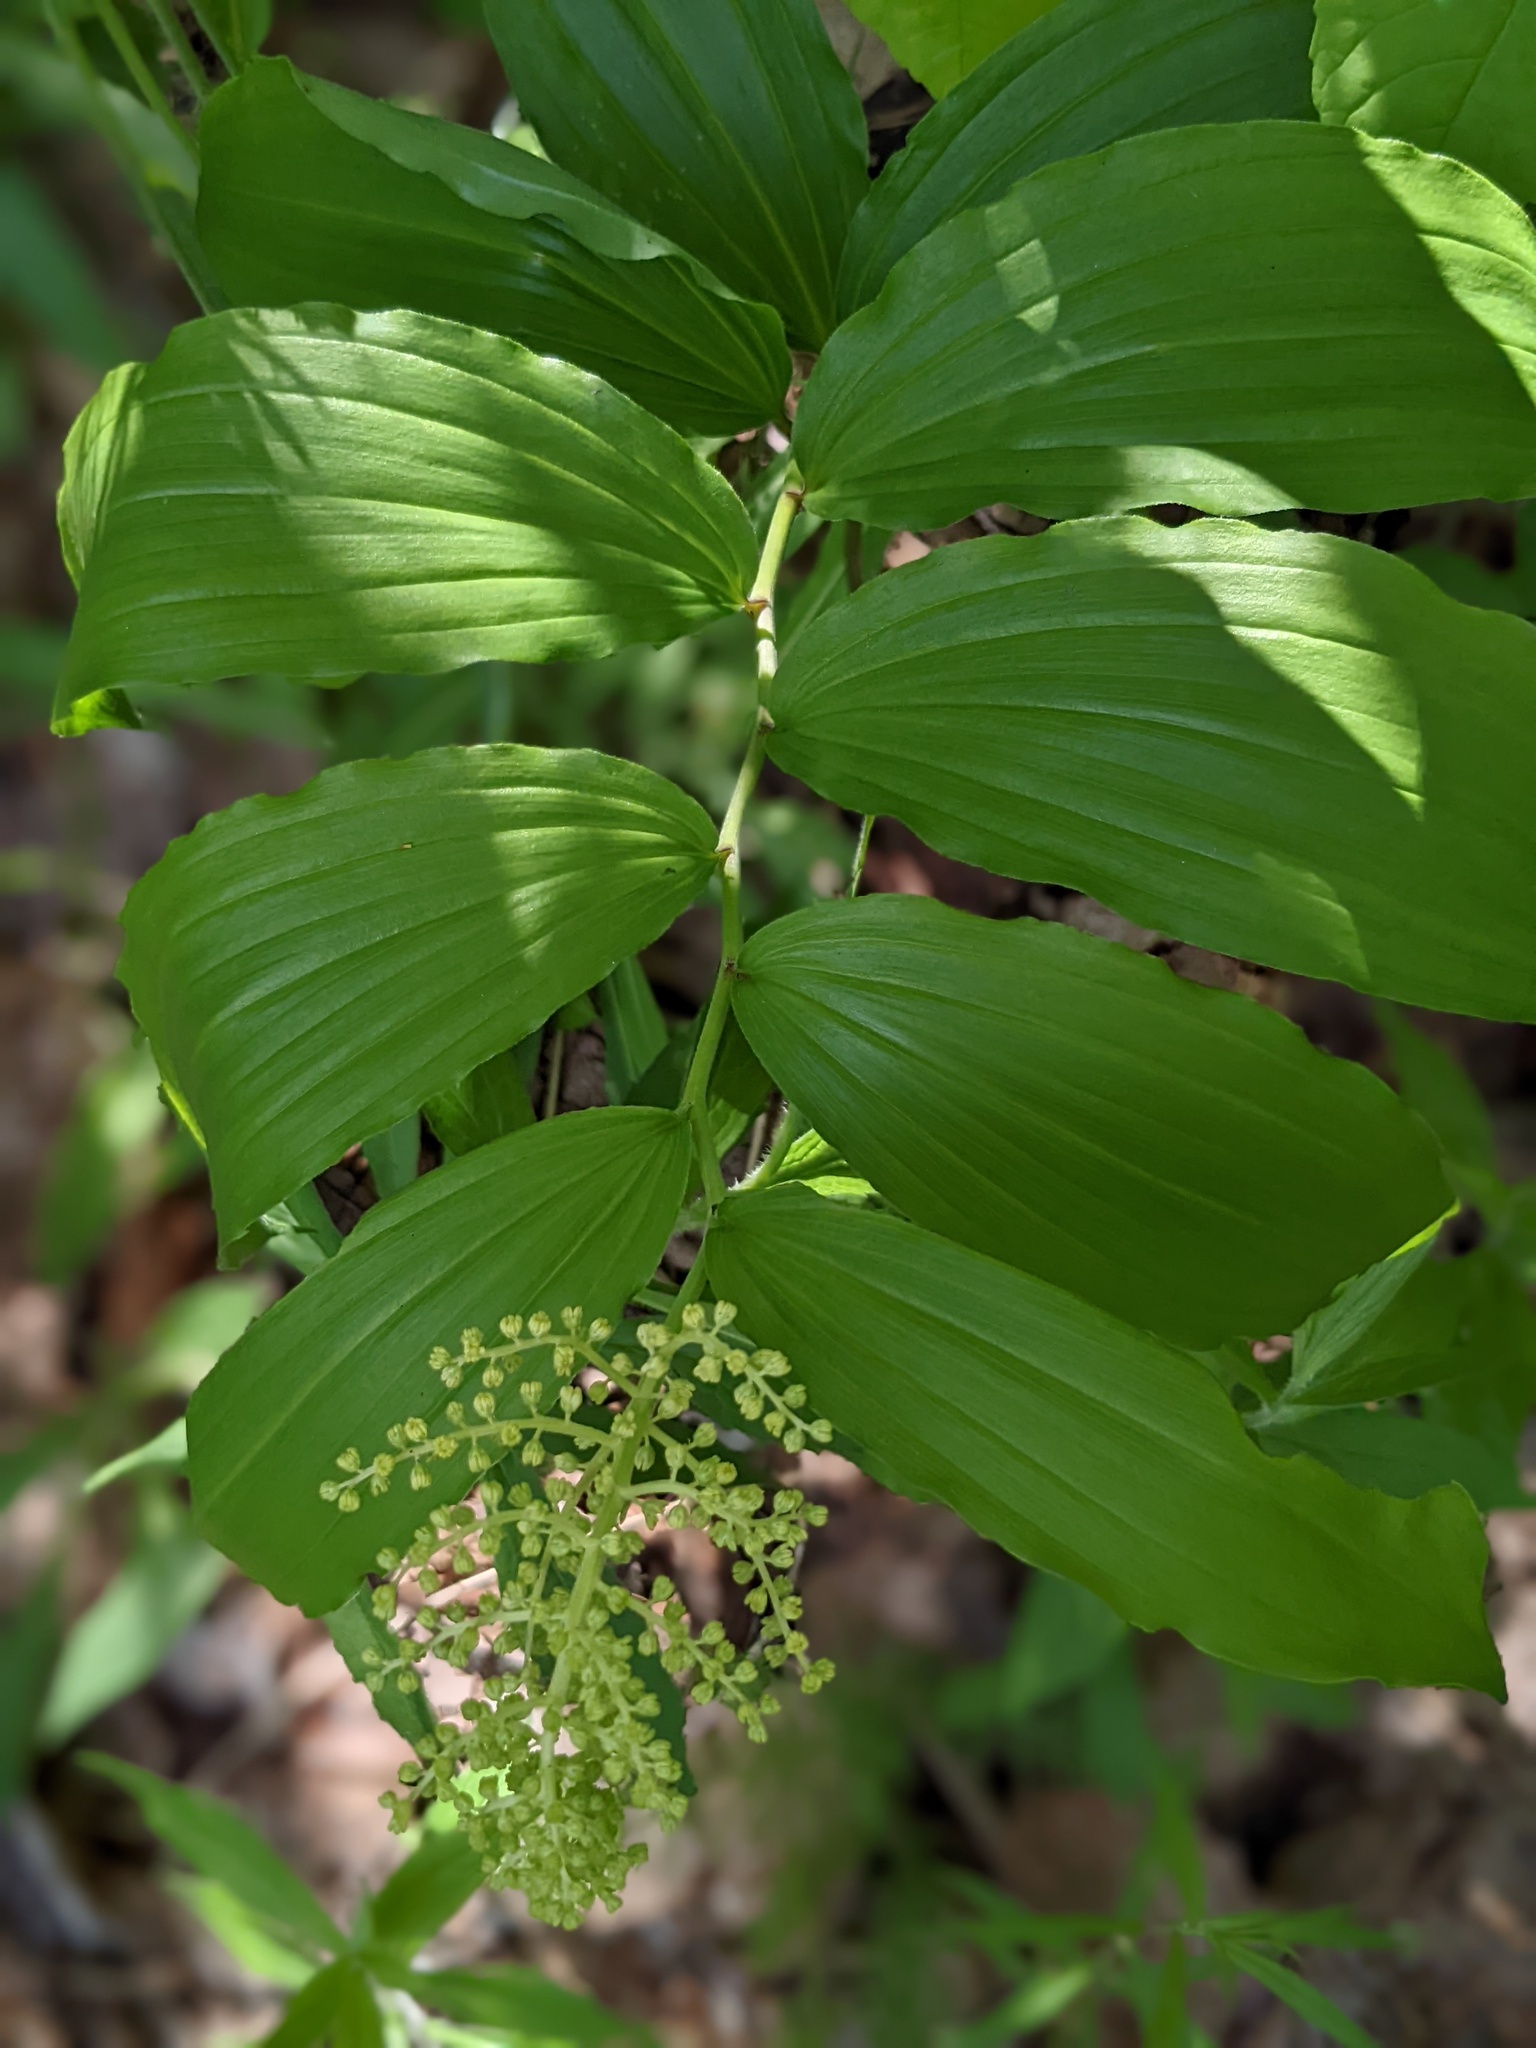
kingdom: Plantae
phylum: Tracheophyta
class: Liliopsida
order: Asparagales
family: Asparagaceae
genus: Maianthemum
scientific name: Maianthemum racemosum
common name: False spikenard
